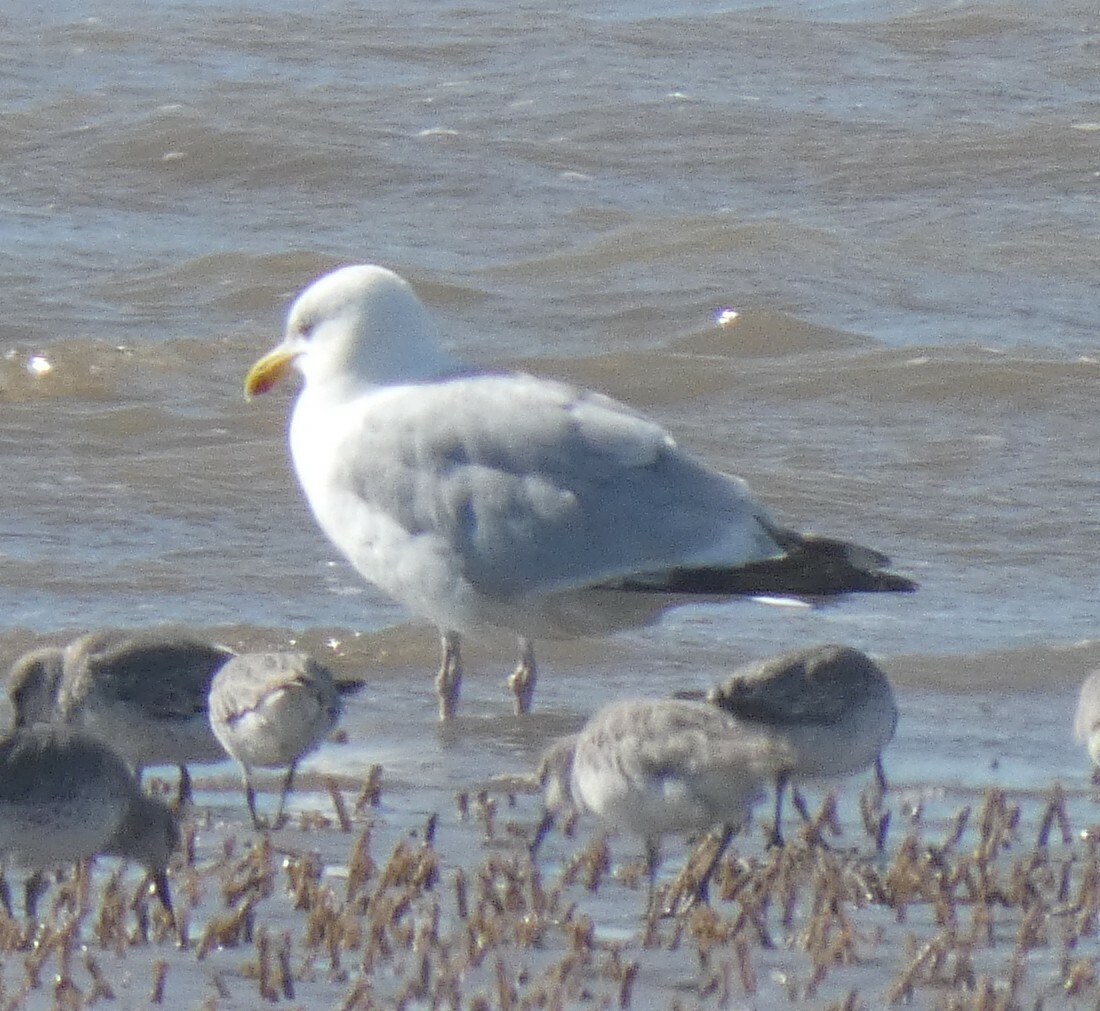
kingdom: Animalia
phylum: Chordata
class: Aves
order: Charadriiformes
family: Laridae
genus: Larus
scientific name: Larus argentatus
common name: Herring gull
